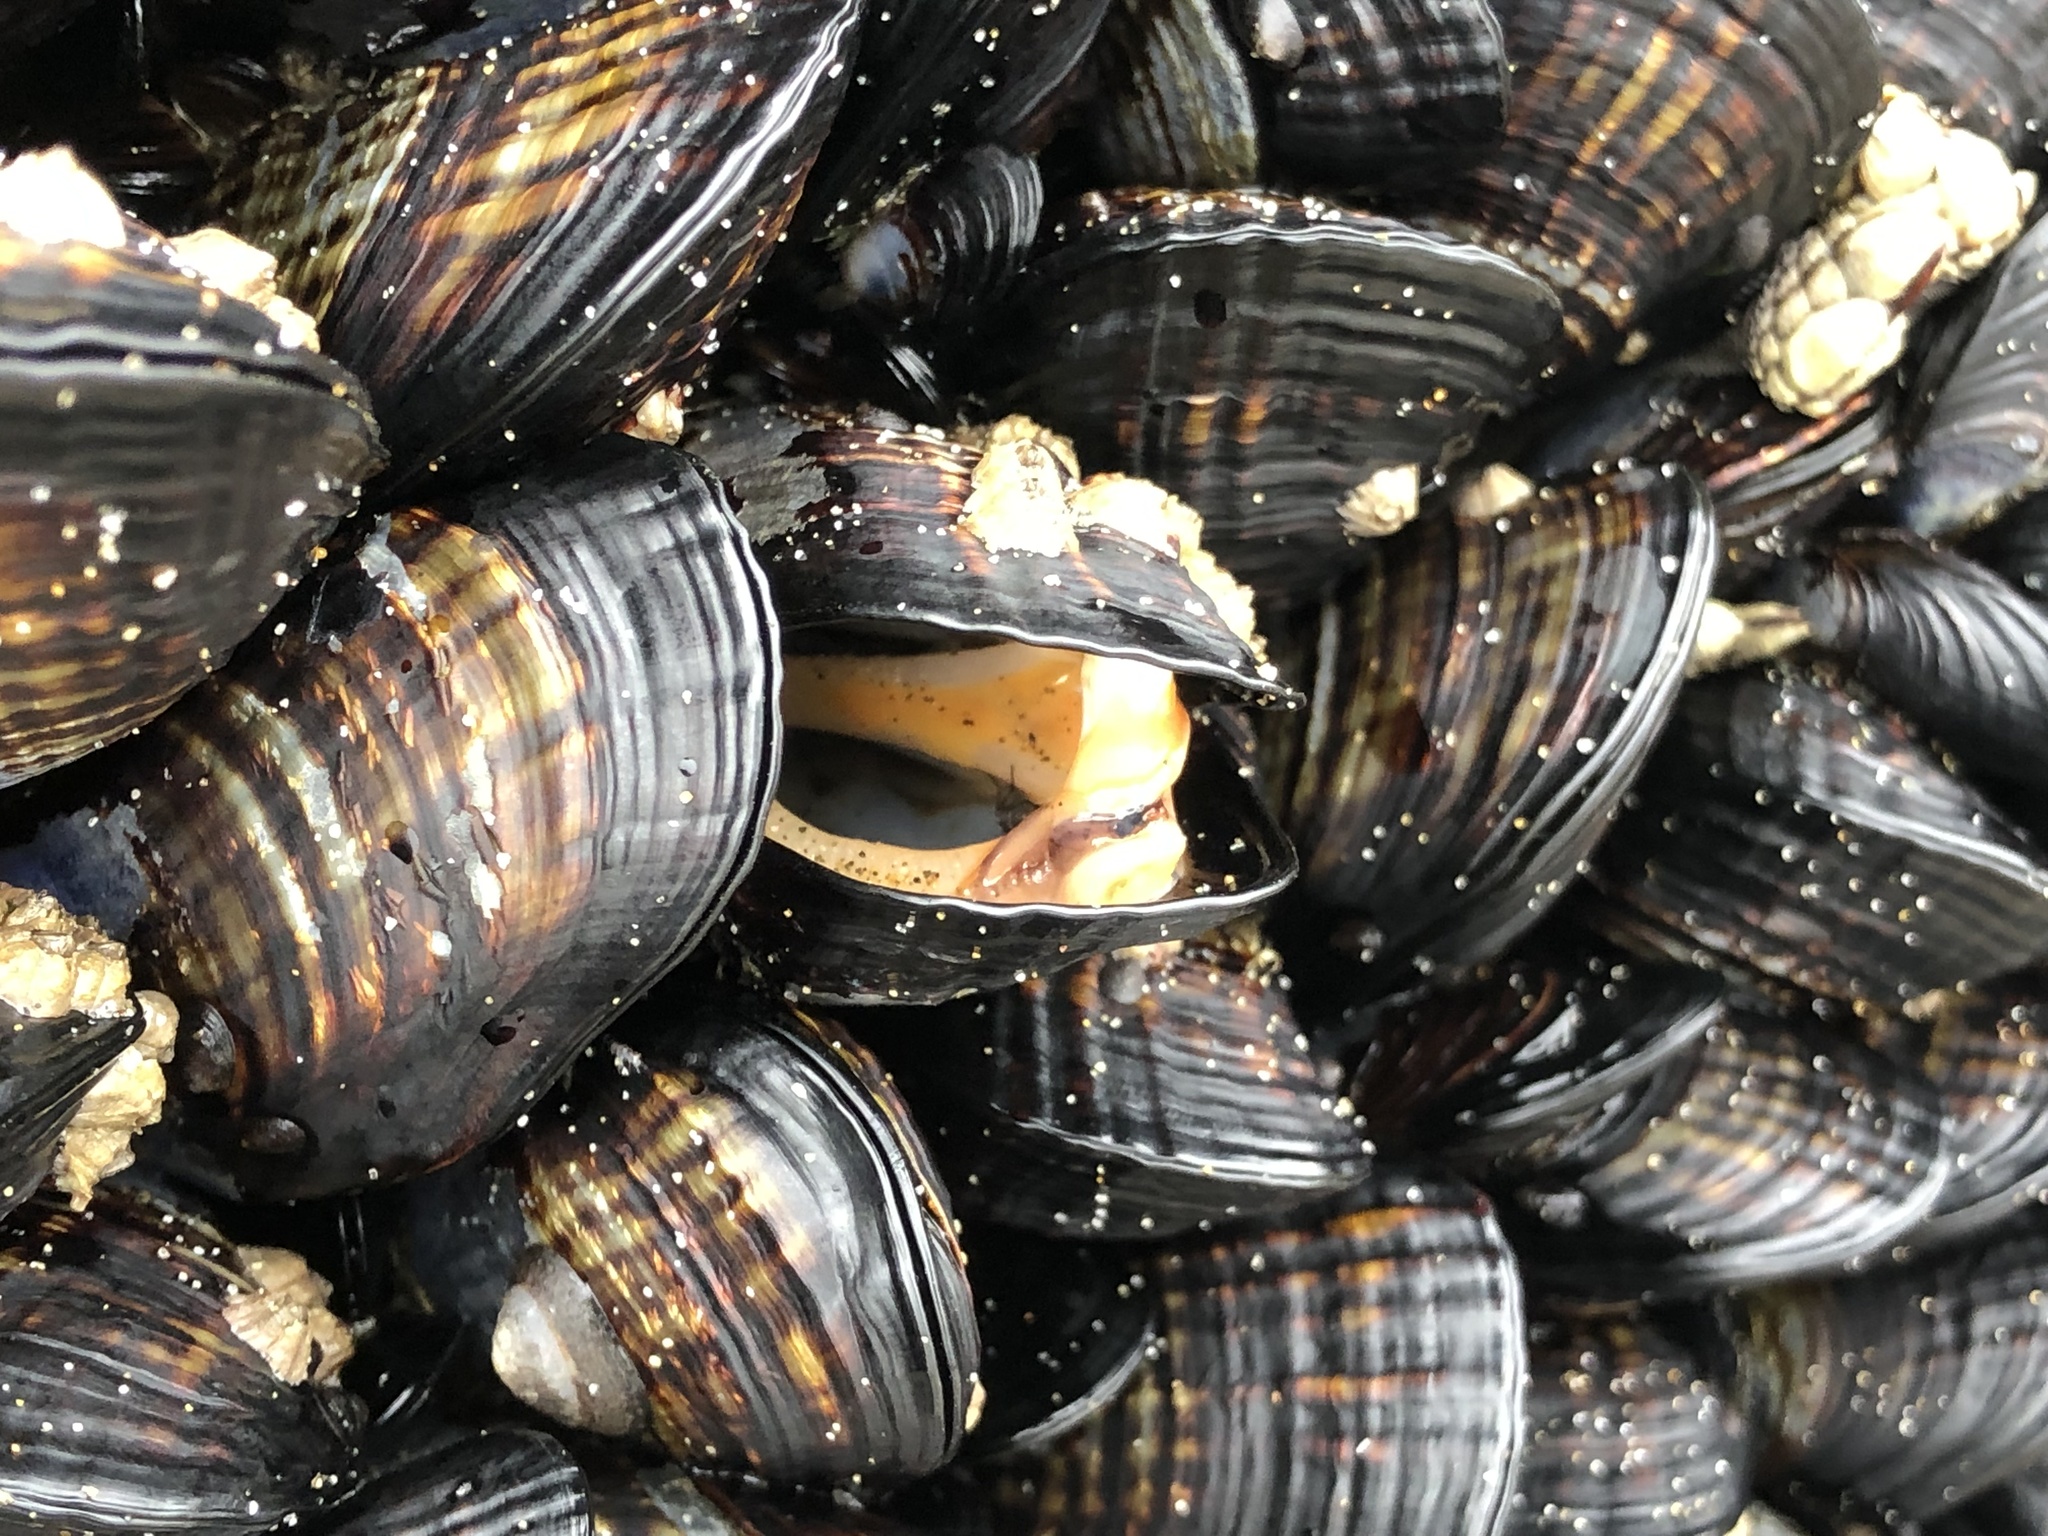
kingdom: Animalia
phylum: Mollusca
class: Bivalvia
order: Mytilida
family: Mytilidae
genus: Mytilus
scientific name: Mytilus californianus
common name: California mussel
